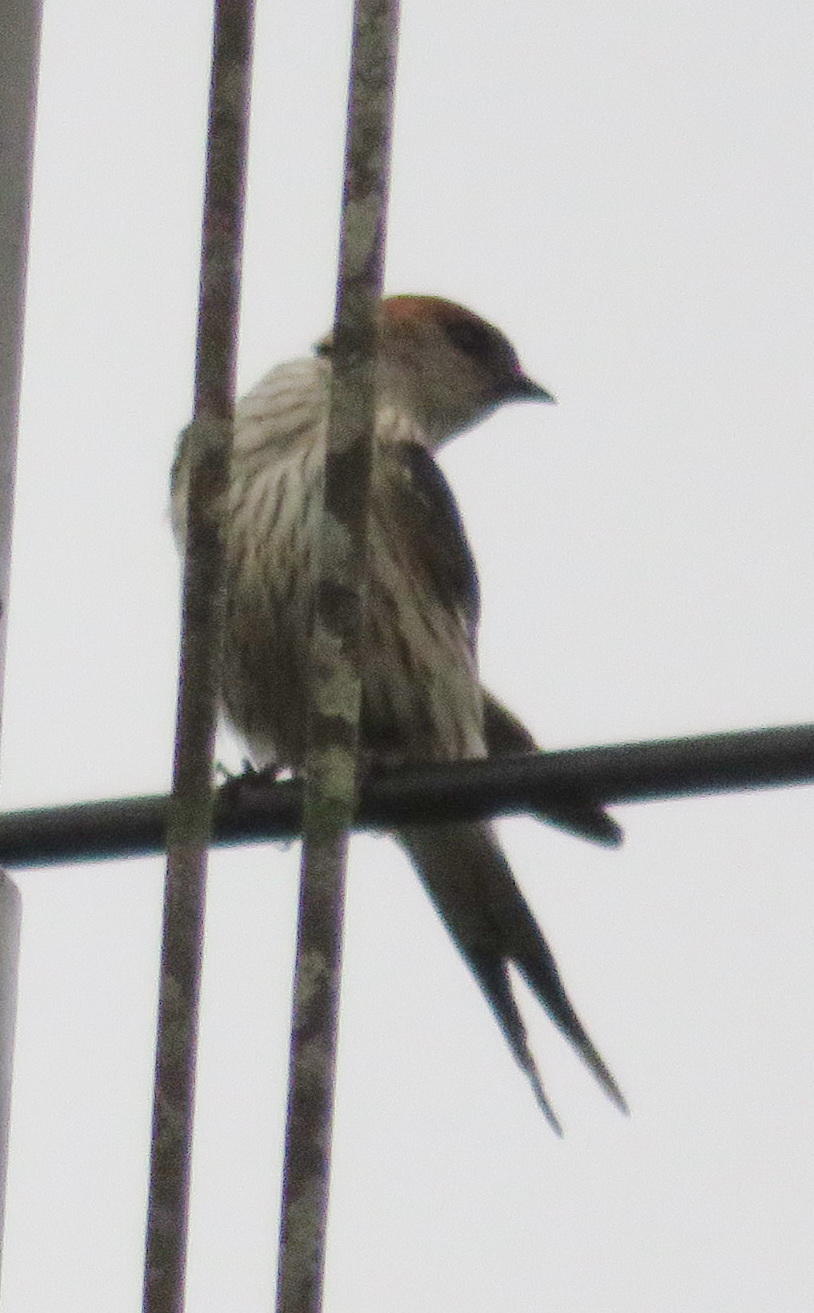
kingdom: Animalia
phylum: Chordata
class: Aves
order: Passeriformes
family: Hirundinidae
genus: Cecropis
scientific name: Cecropis cucullata
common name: Greater striped-swallow
